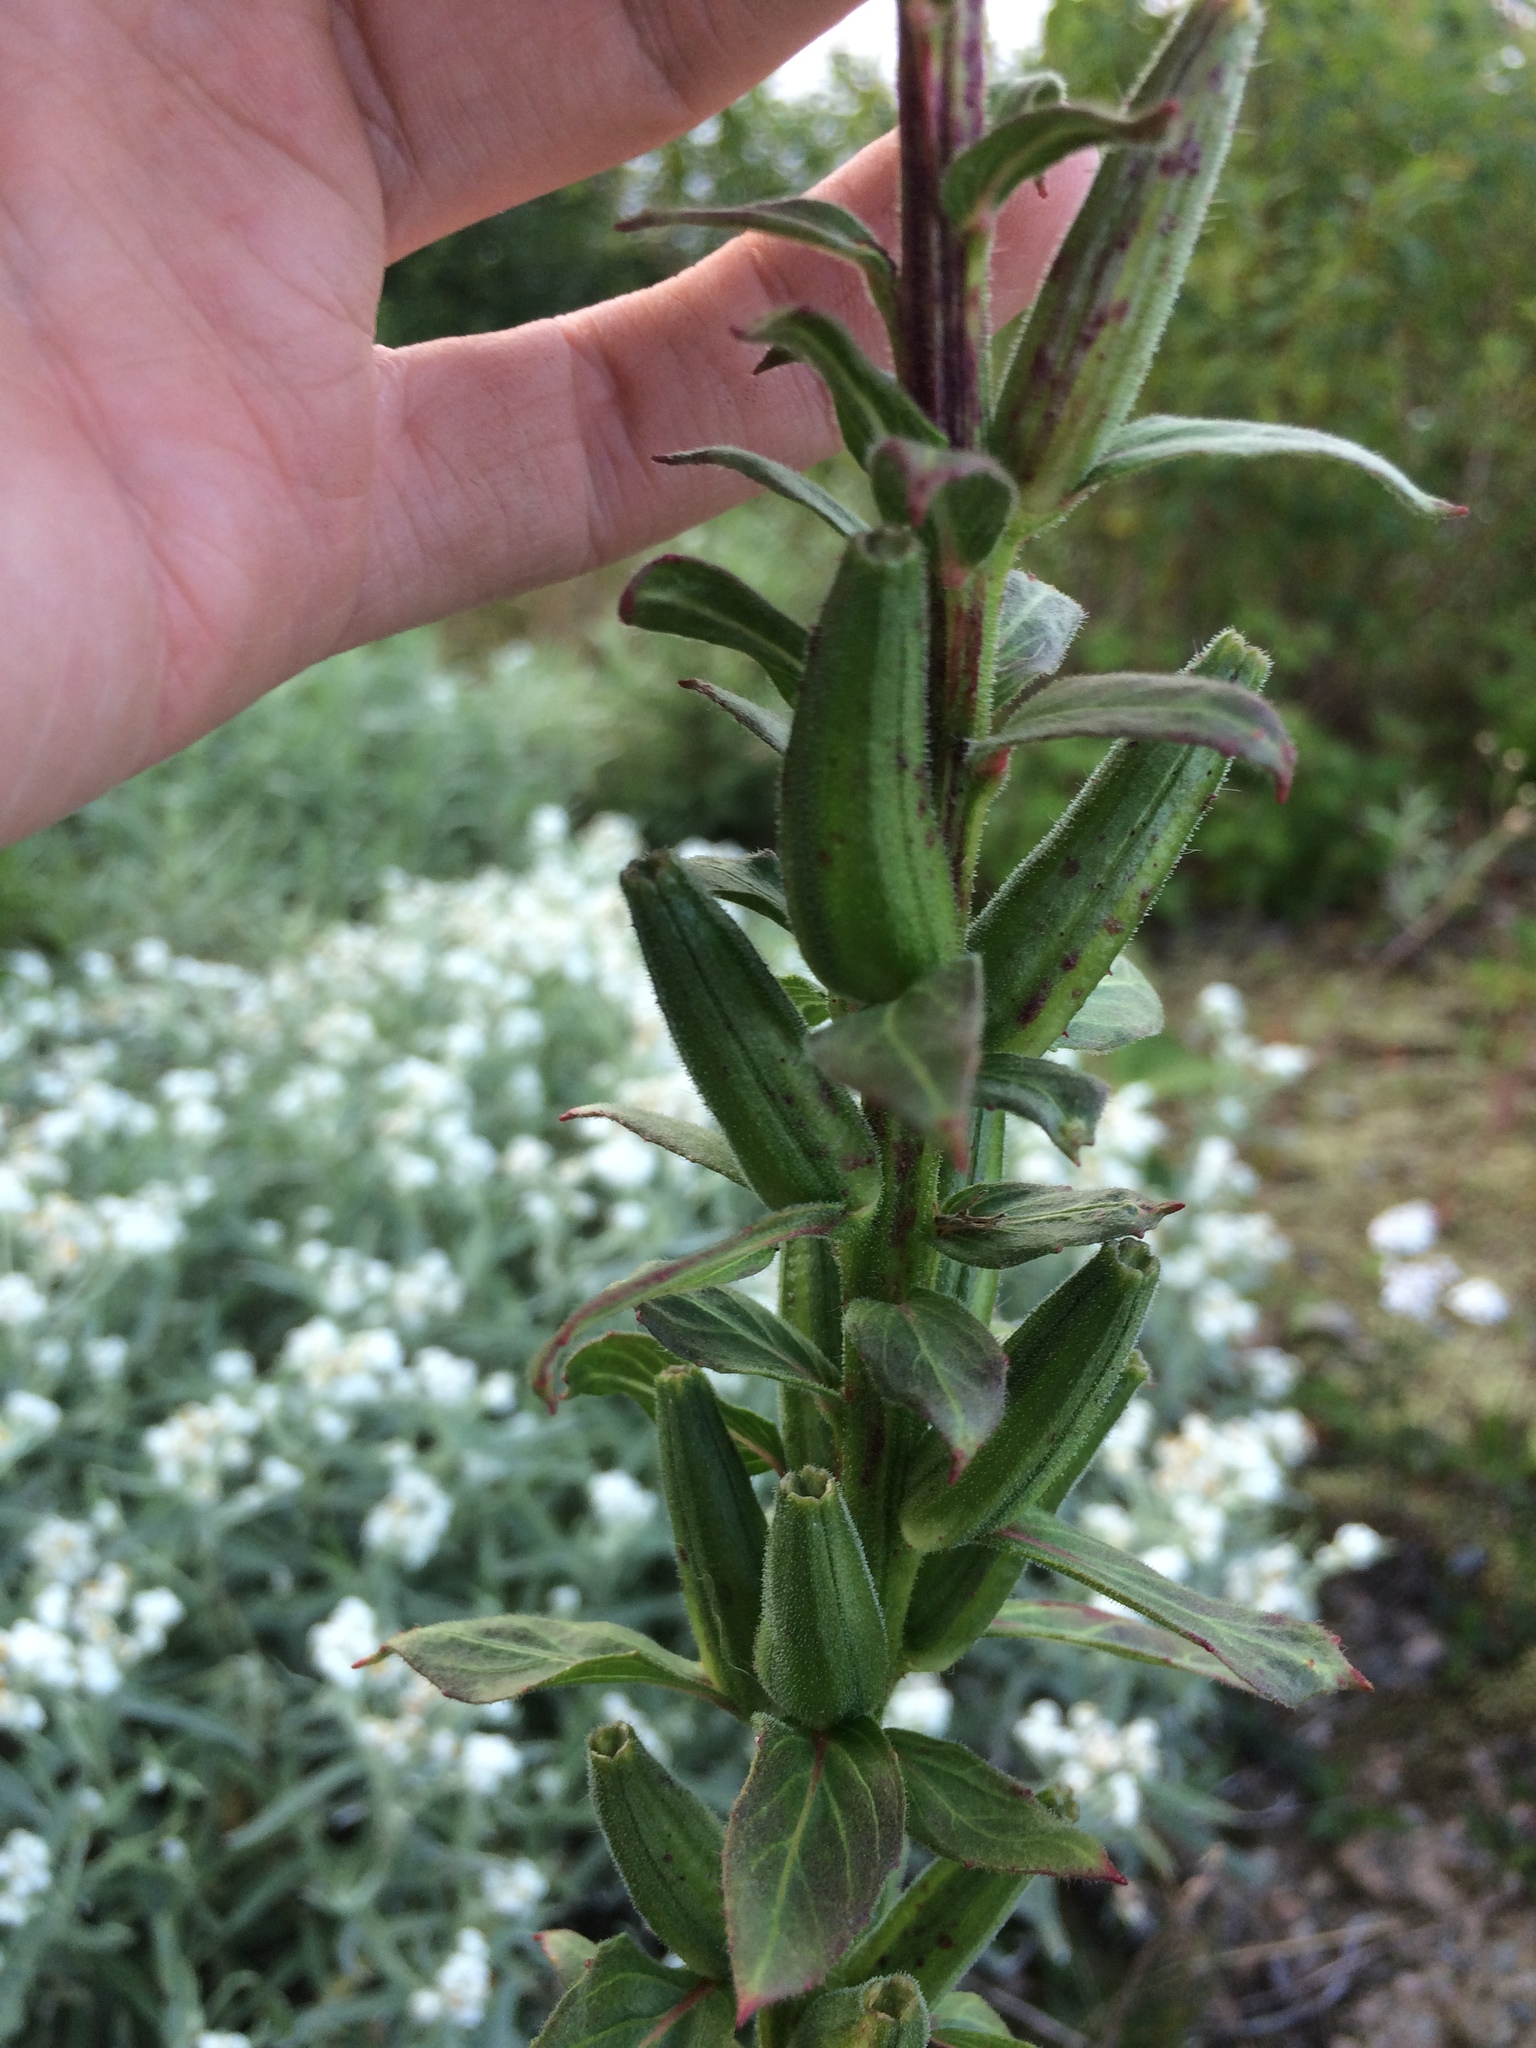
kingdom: Plantae
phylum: Tracheophyta
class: Magnoliopsida
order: Myrtales
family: Onagraceae
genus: Oenothera
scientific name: Oenothera parviflora
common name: Least evening-primrose
